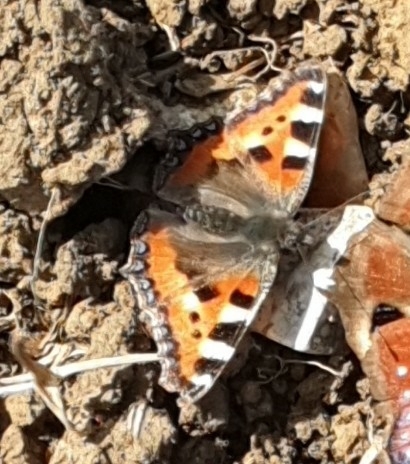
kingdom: Animalia
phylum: Arthropoda
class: Insecta
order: Lepidoptera
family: Nymphalidae
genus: Aglais
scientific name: Aglais urticae
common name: Small tortoiseshell
